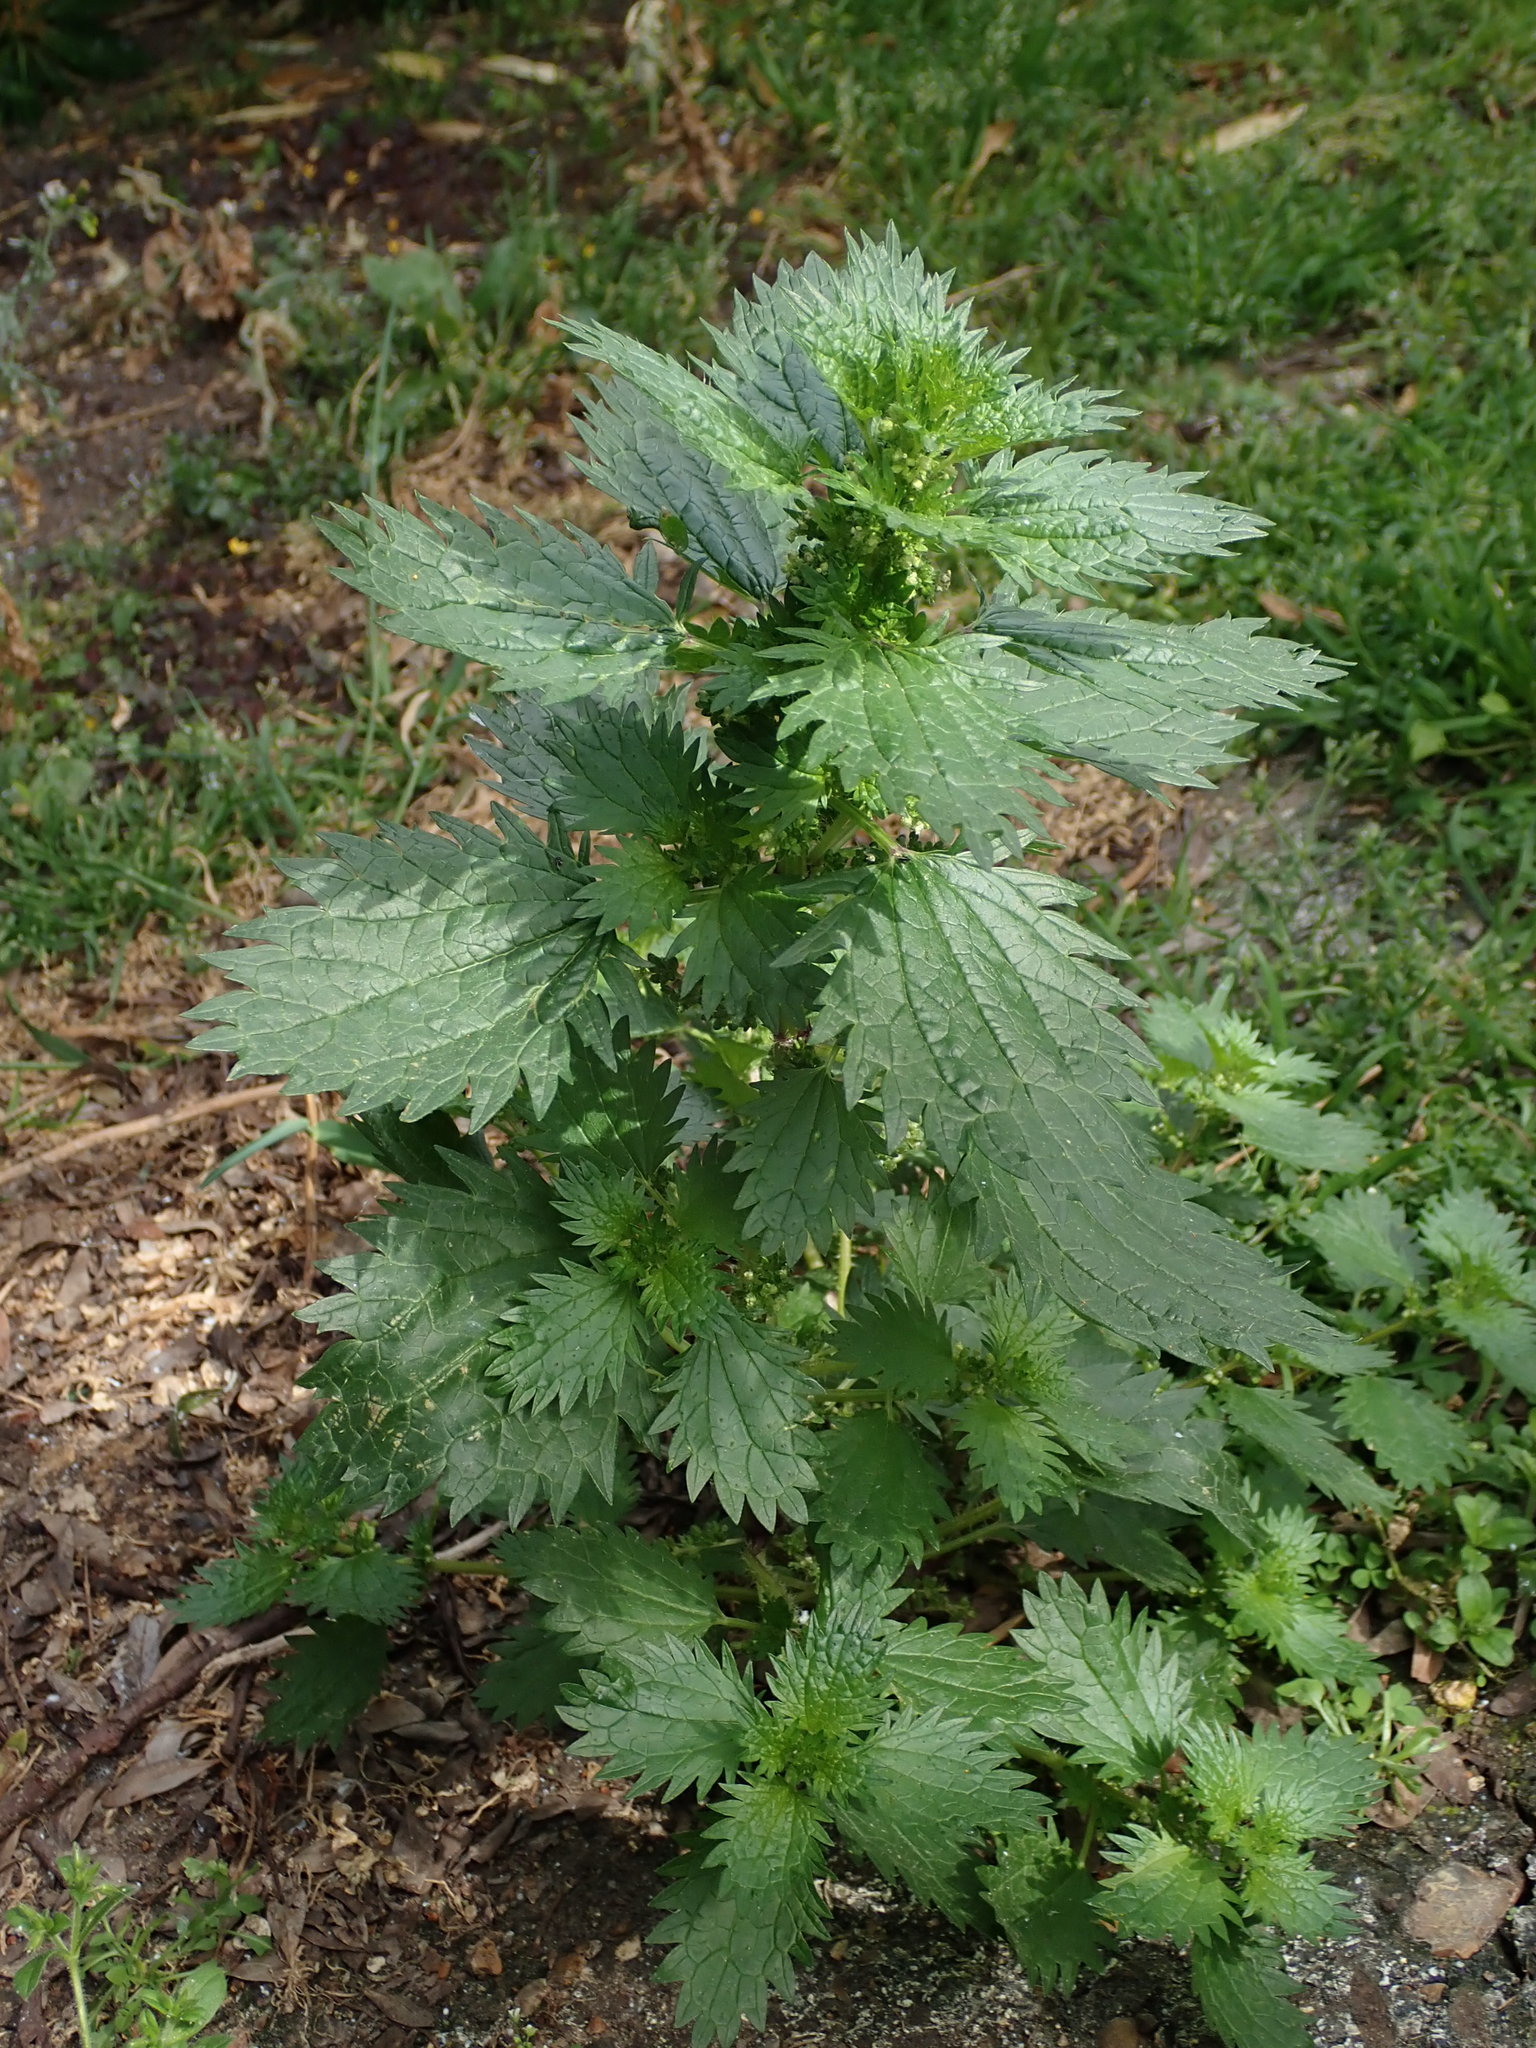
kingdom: Plantae
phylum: Tracheophyta
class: Magnoliopsida
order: Rosales
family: Urticaceae
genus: Urtica
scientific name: Urtica urens
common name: Dwarf nettle
